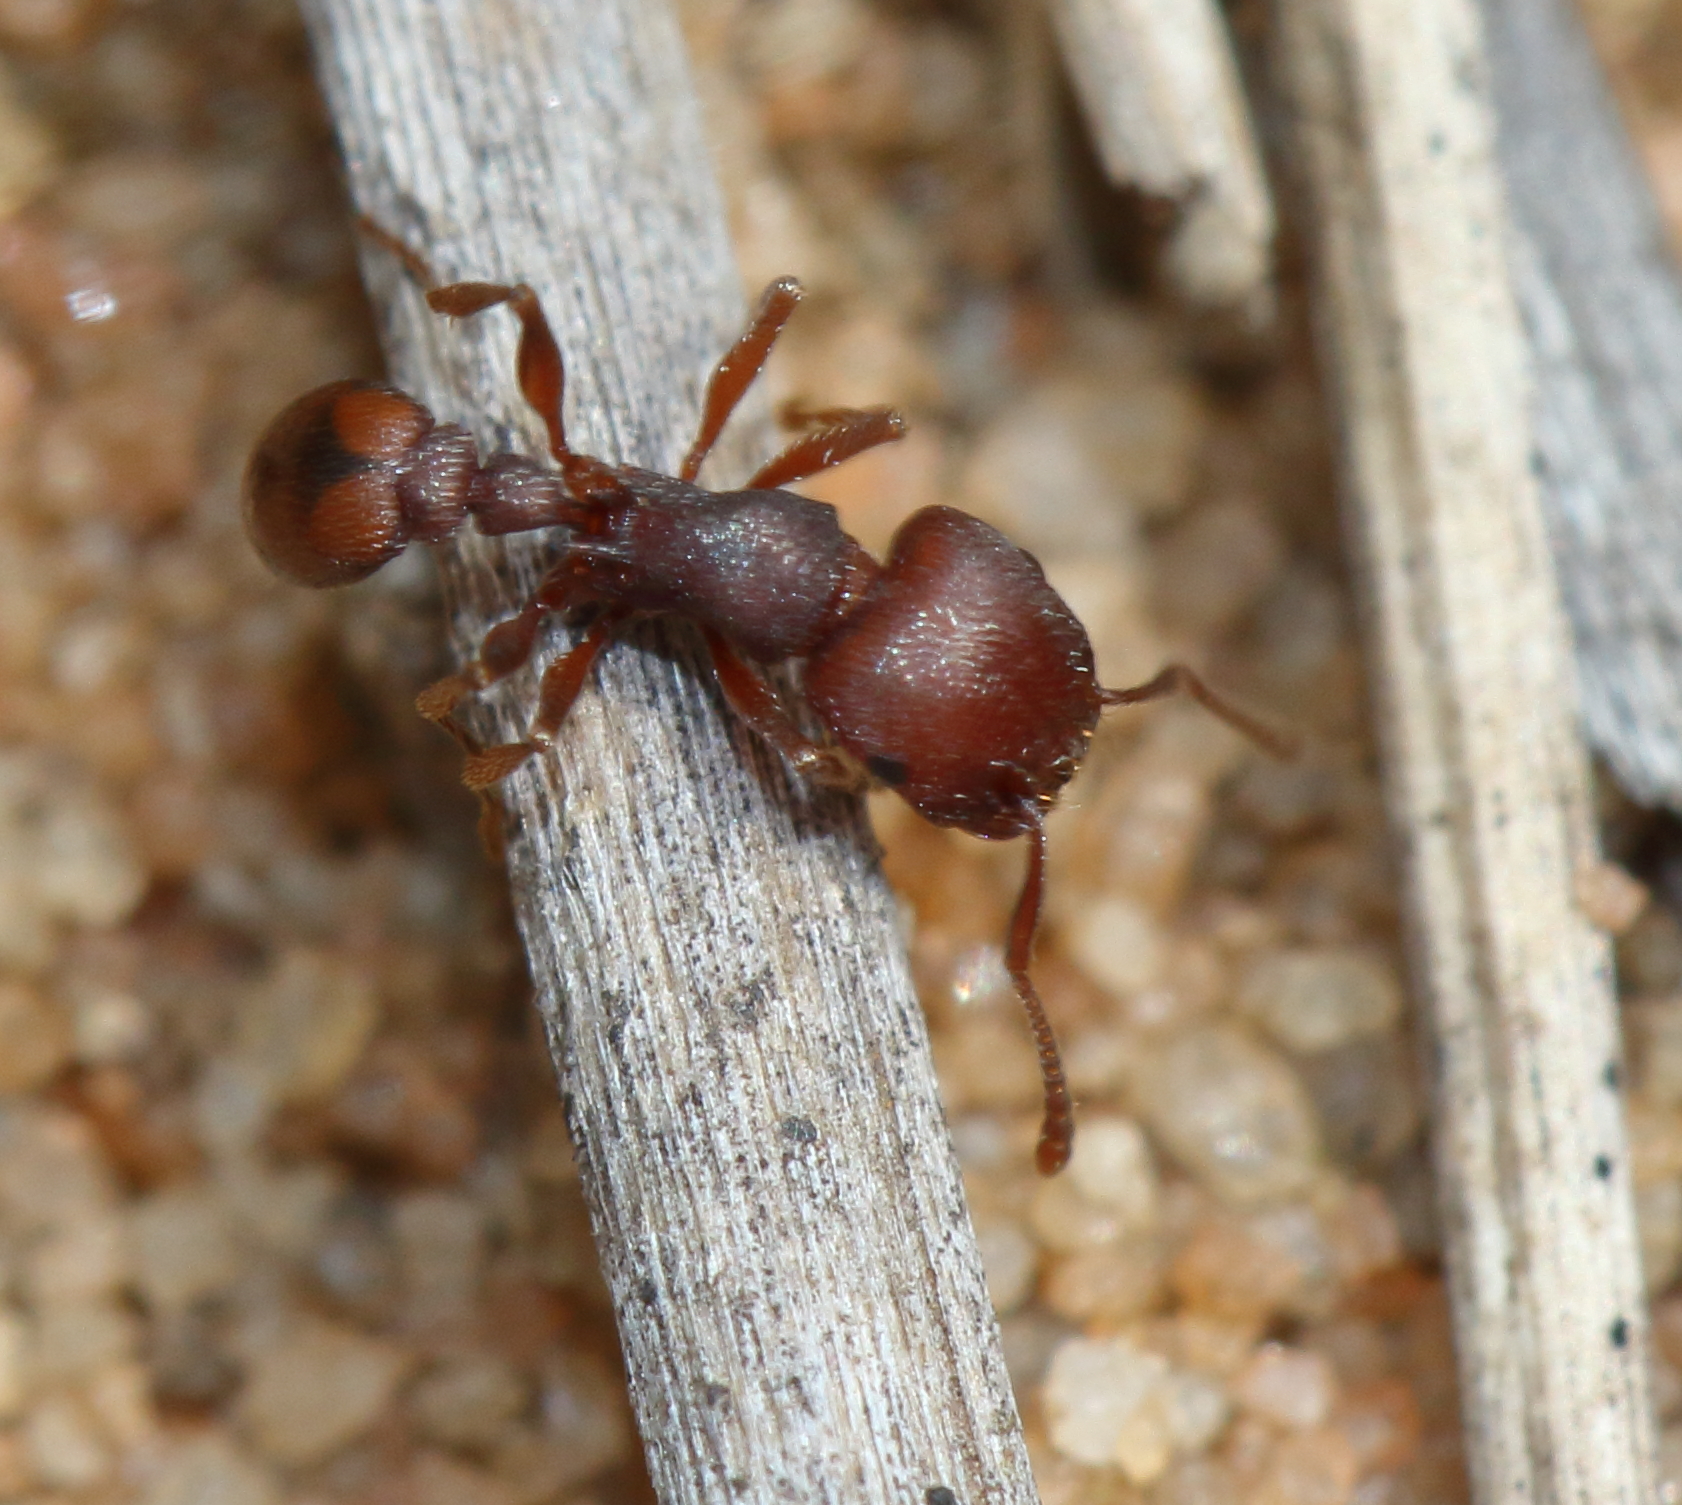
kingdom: Animalia
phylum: Arthropoda
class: Insecta
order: Hymenoptera
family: Formicidae
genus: Tetramorium
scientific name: Tetramorium setuliferum
